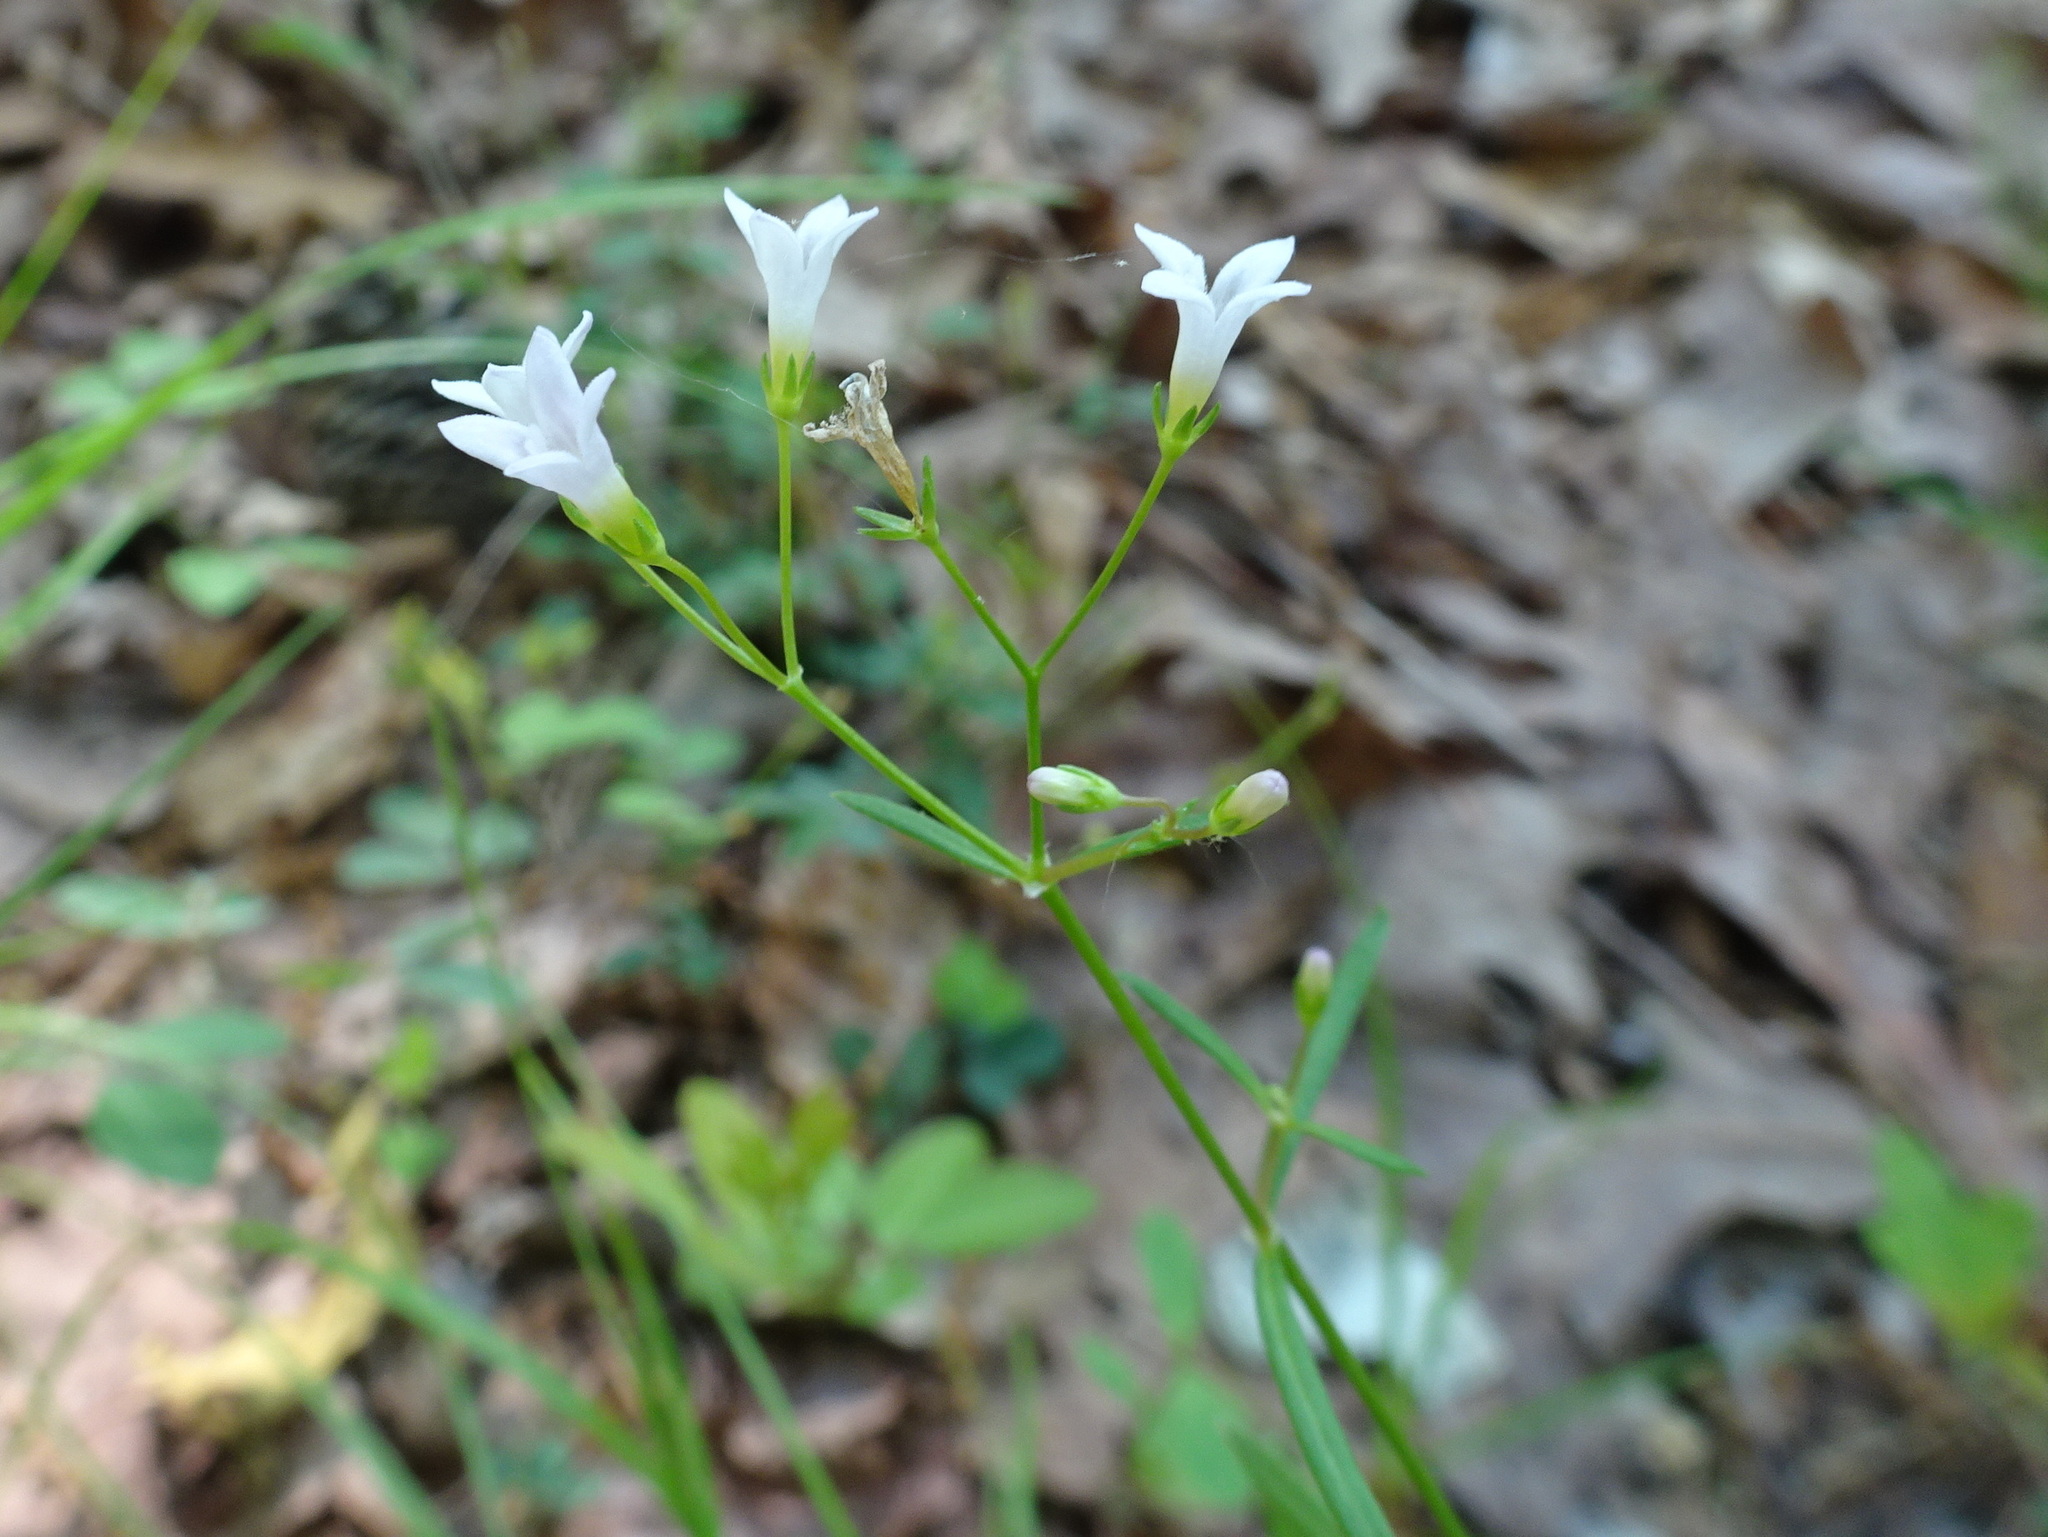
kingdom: Plantae
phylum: Tracheophyta
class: Magnoliopsida
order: Gentianales
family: Rubiaceae
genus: Houstonia
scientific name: Houstonia longifolia
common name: Long-leaved bluets
